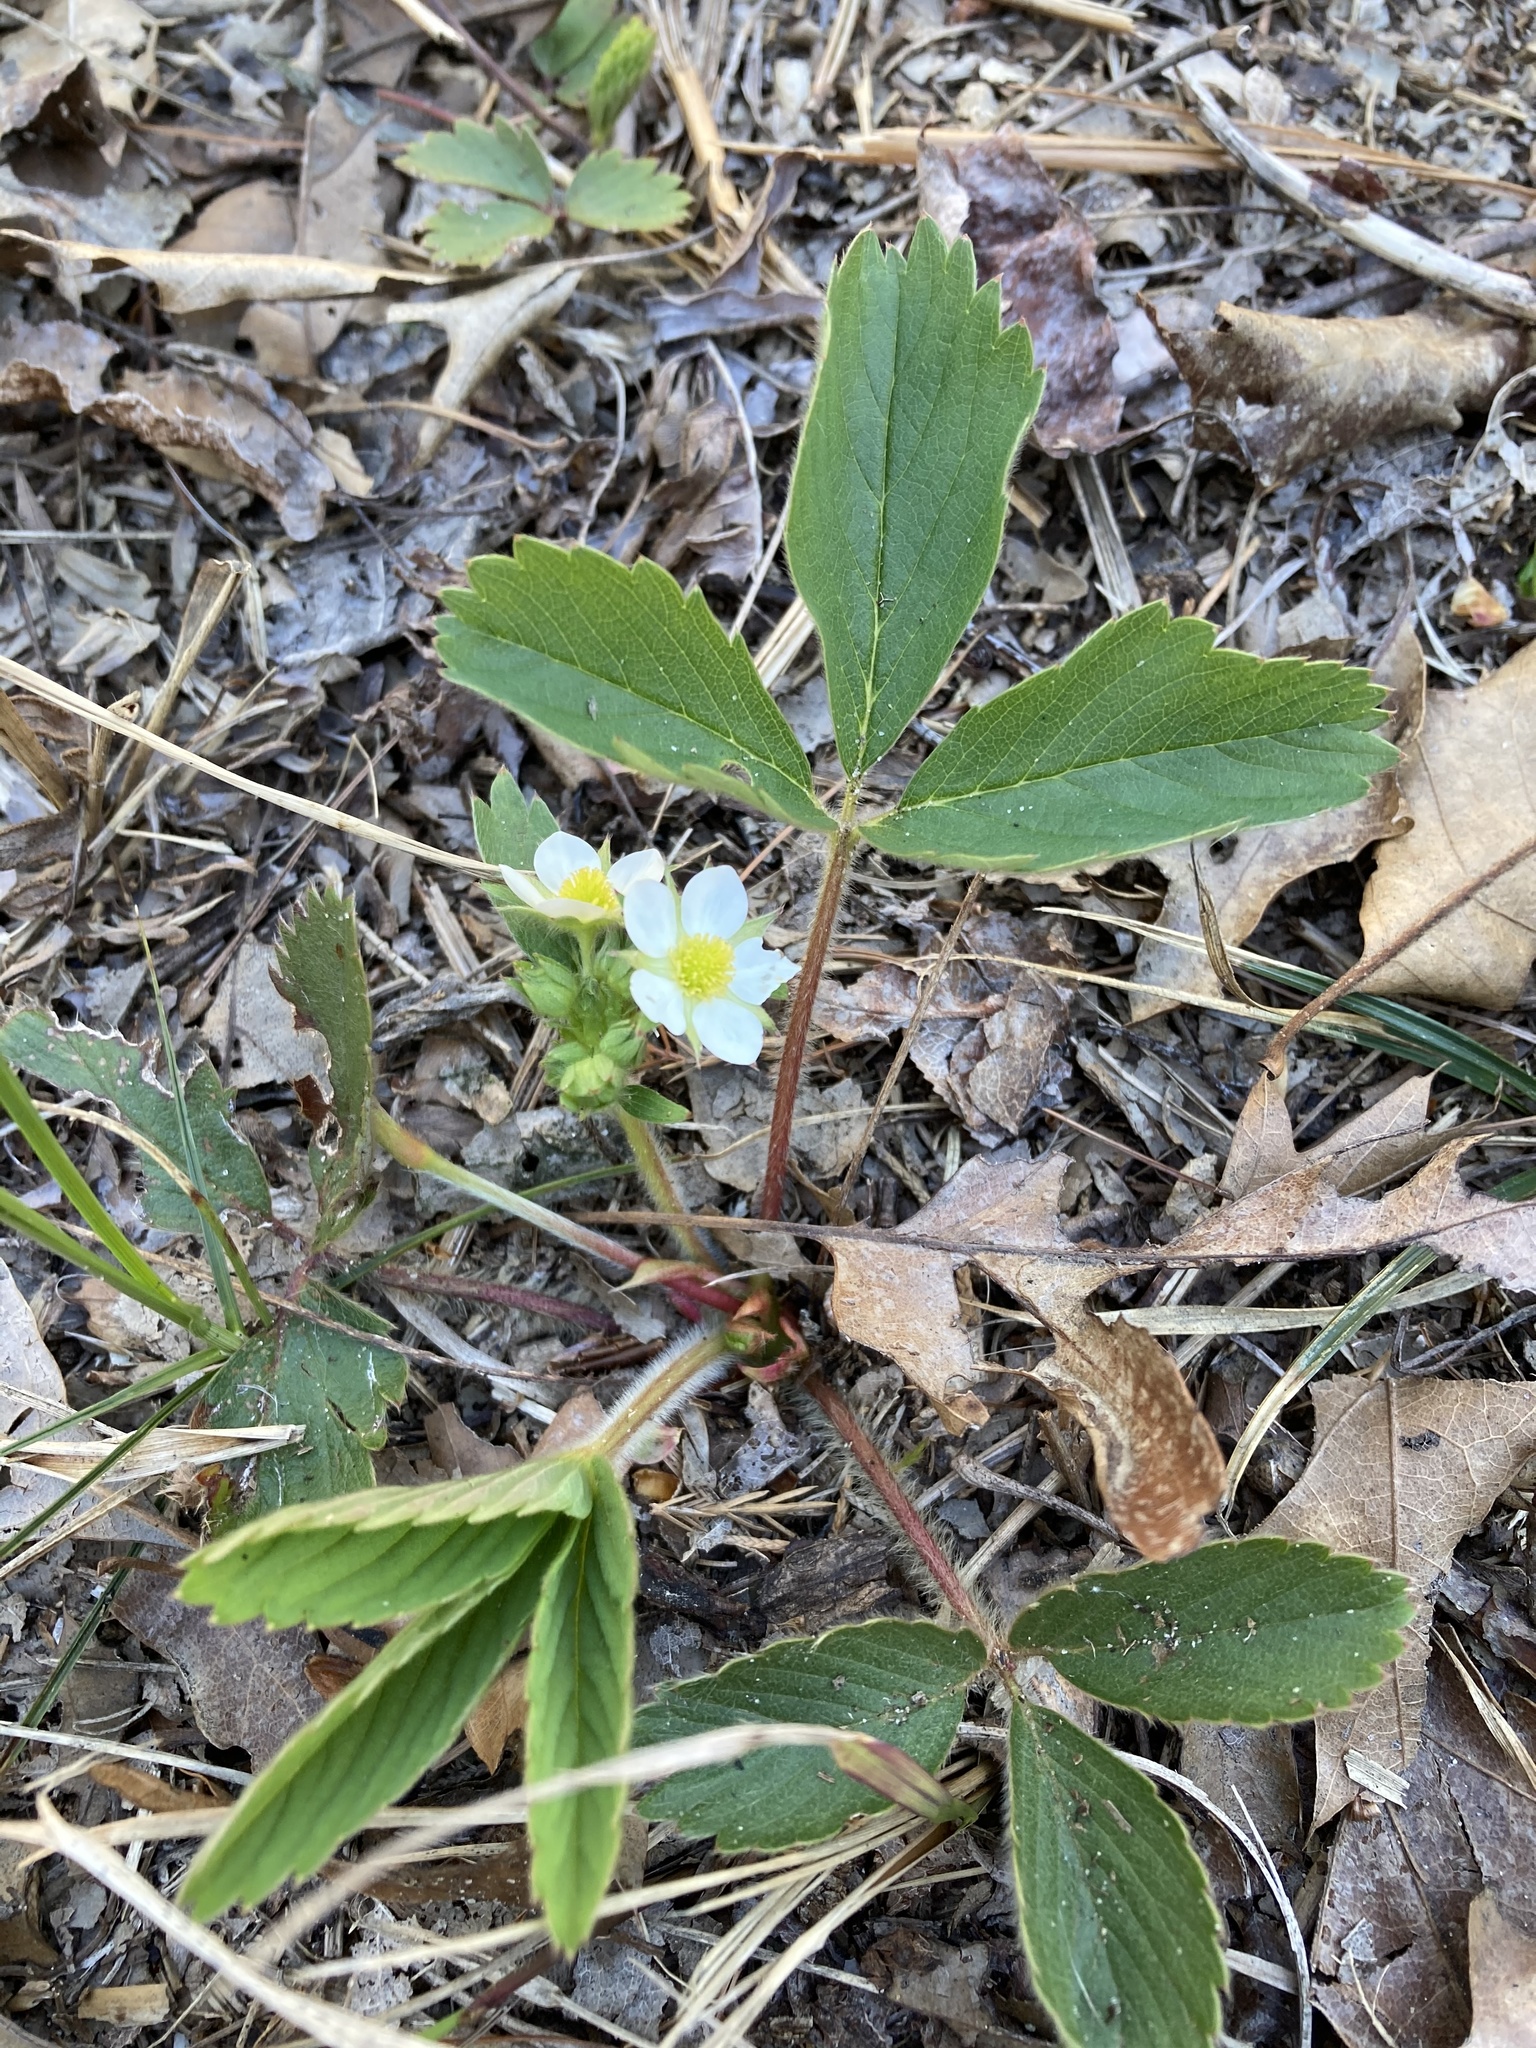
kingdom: Plantae
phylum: Tracheophyta
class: Magnoliopsida
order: Rosales
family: Rosaceae
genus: Fragaria
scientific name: Fragaria virginiana
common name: Thickleaved wild strawberry
